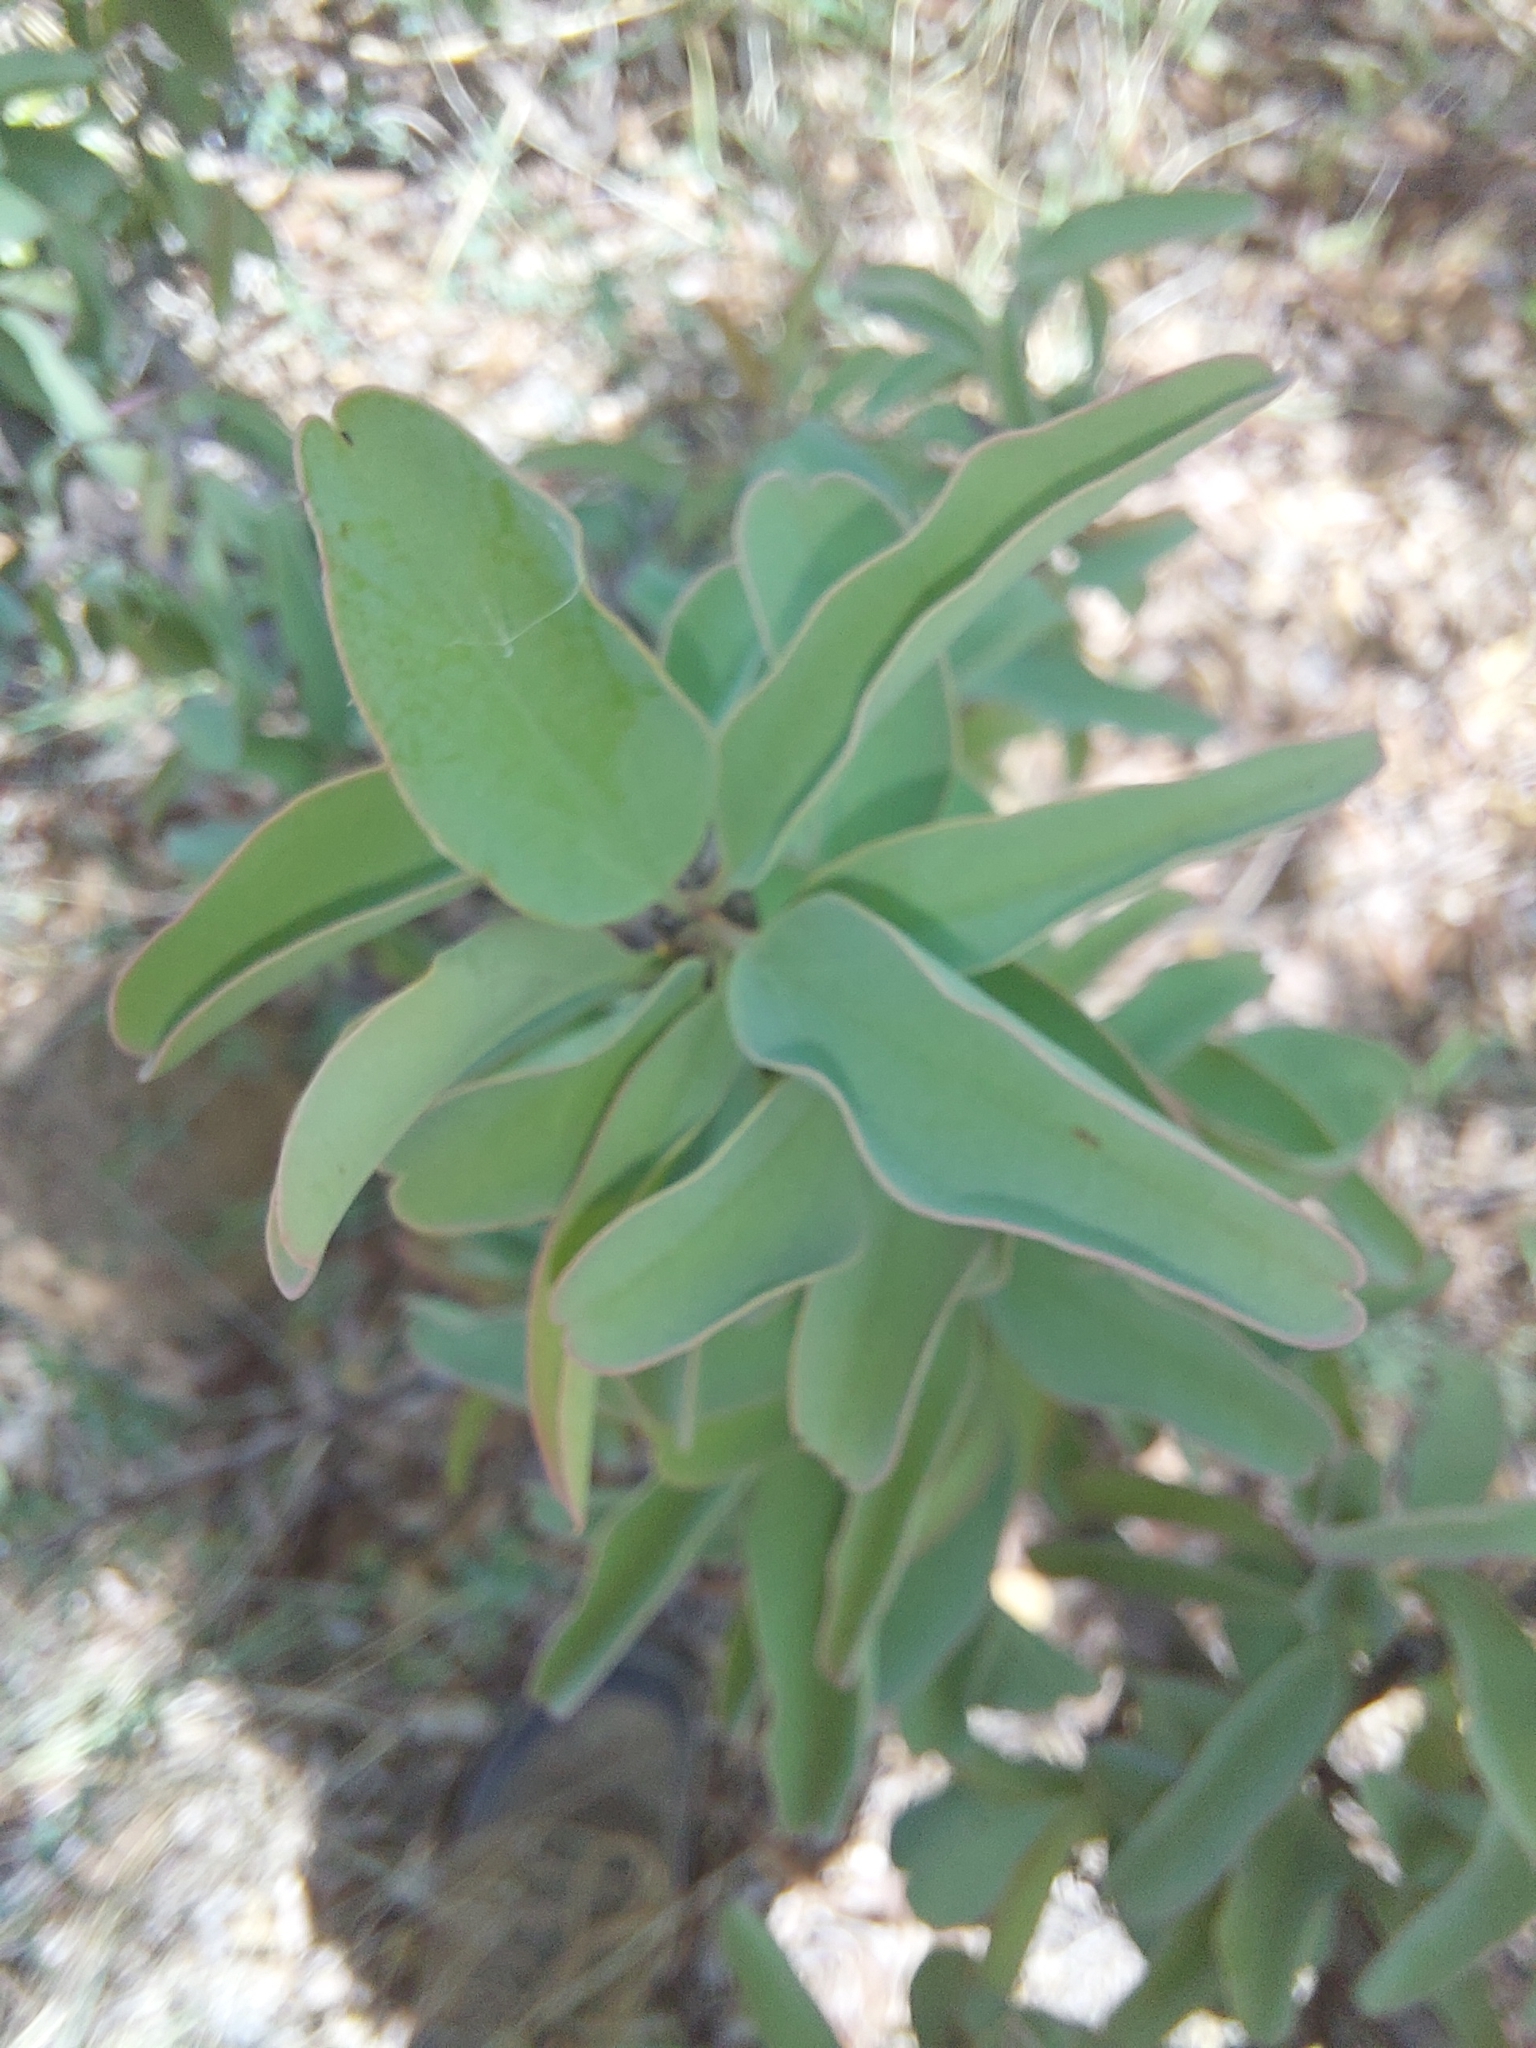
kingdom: Plantae
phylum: Tracheophyta
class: Magnoliopsida
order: Santalales
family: Ximeniaceae
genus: Ximenia
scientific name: Ximenia americana
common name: Tallowwood
